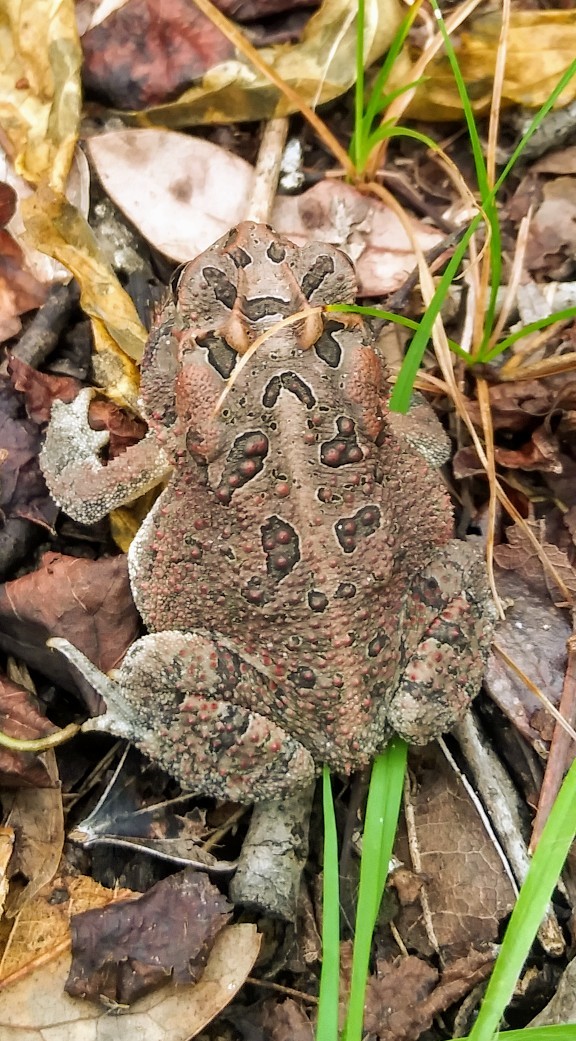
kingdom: Animalia
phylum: Chordata
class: Amphibia
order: Anura
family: Bufonidae
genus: Anaxyrus
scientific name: Anaxyrus terrestris
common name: Southern toad
